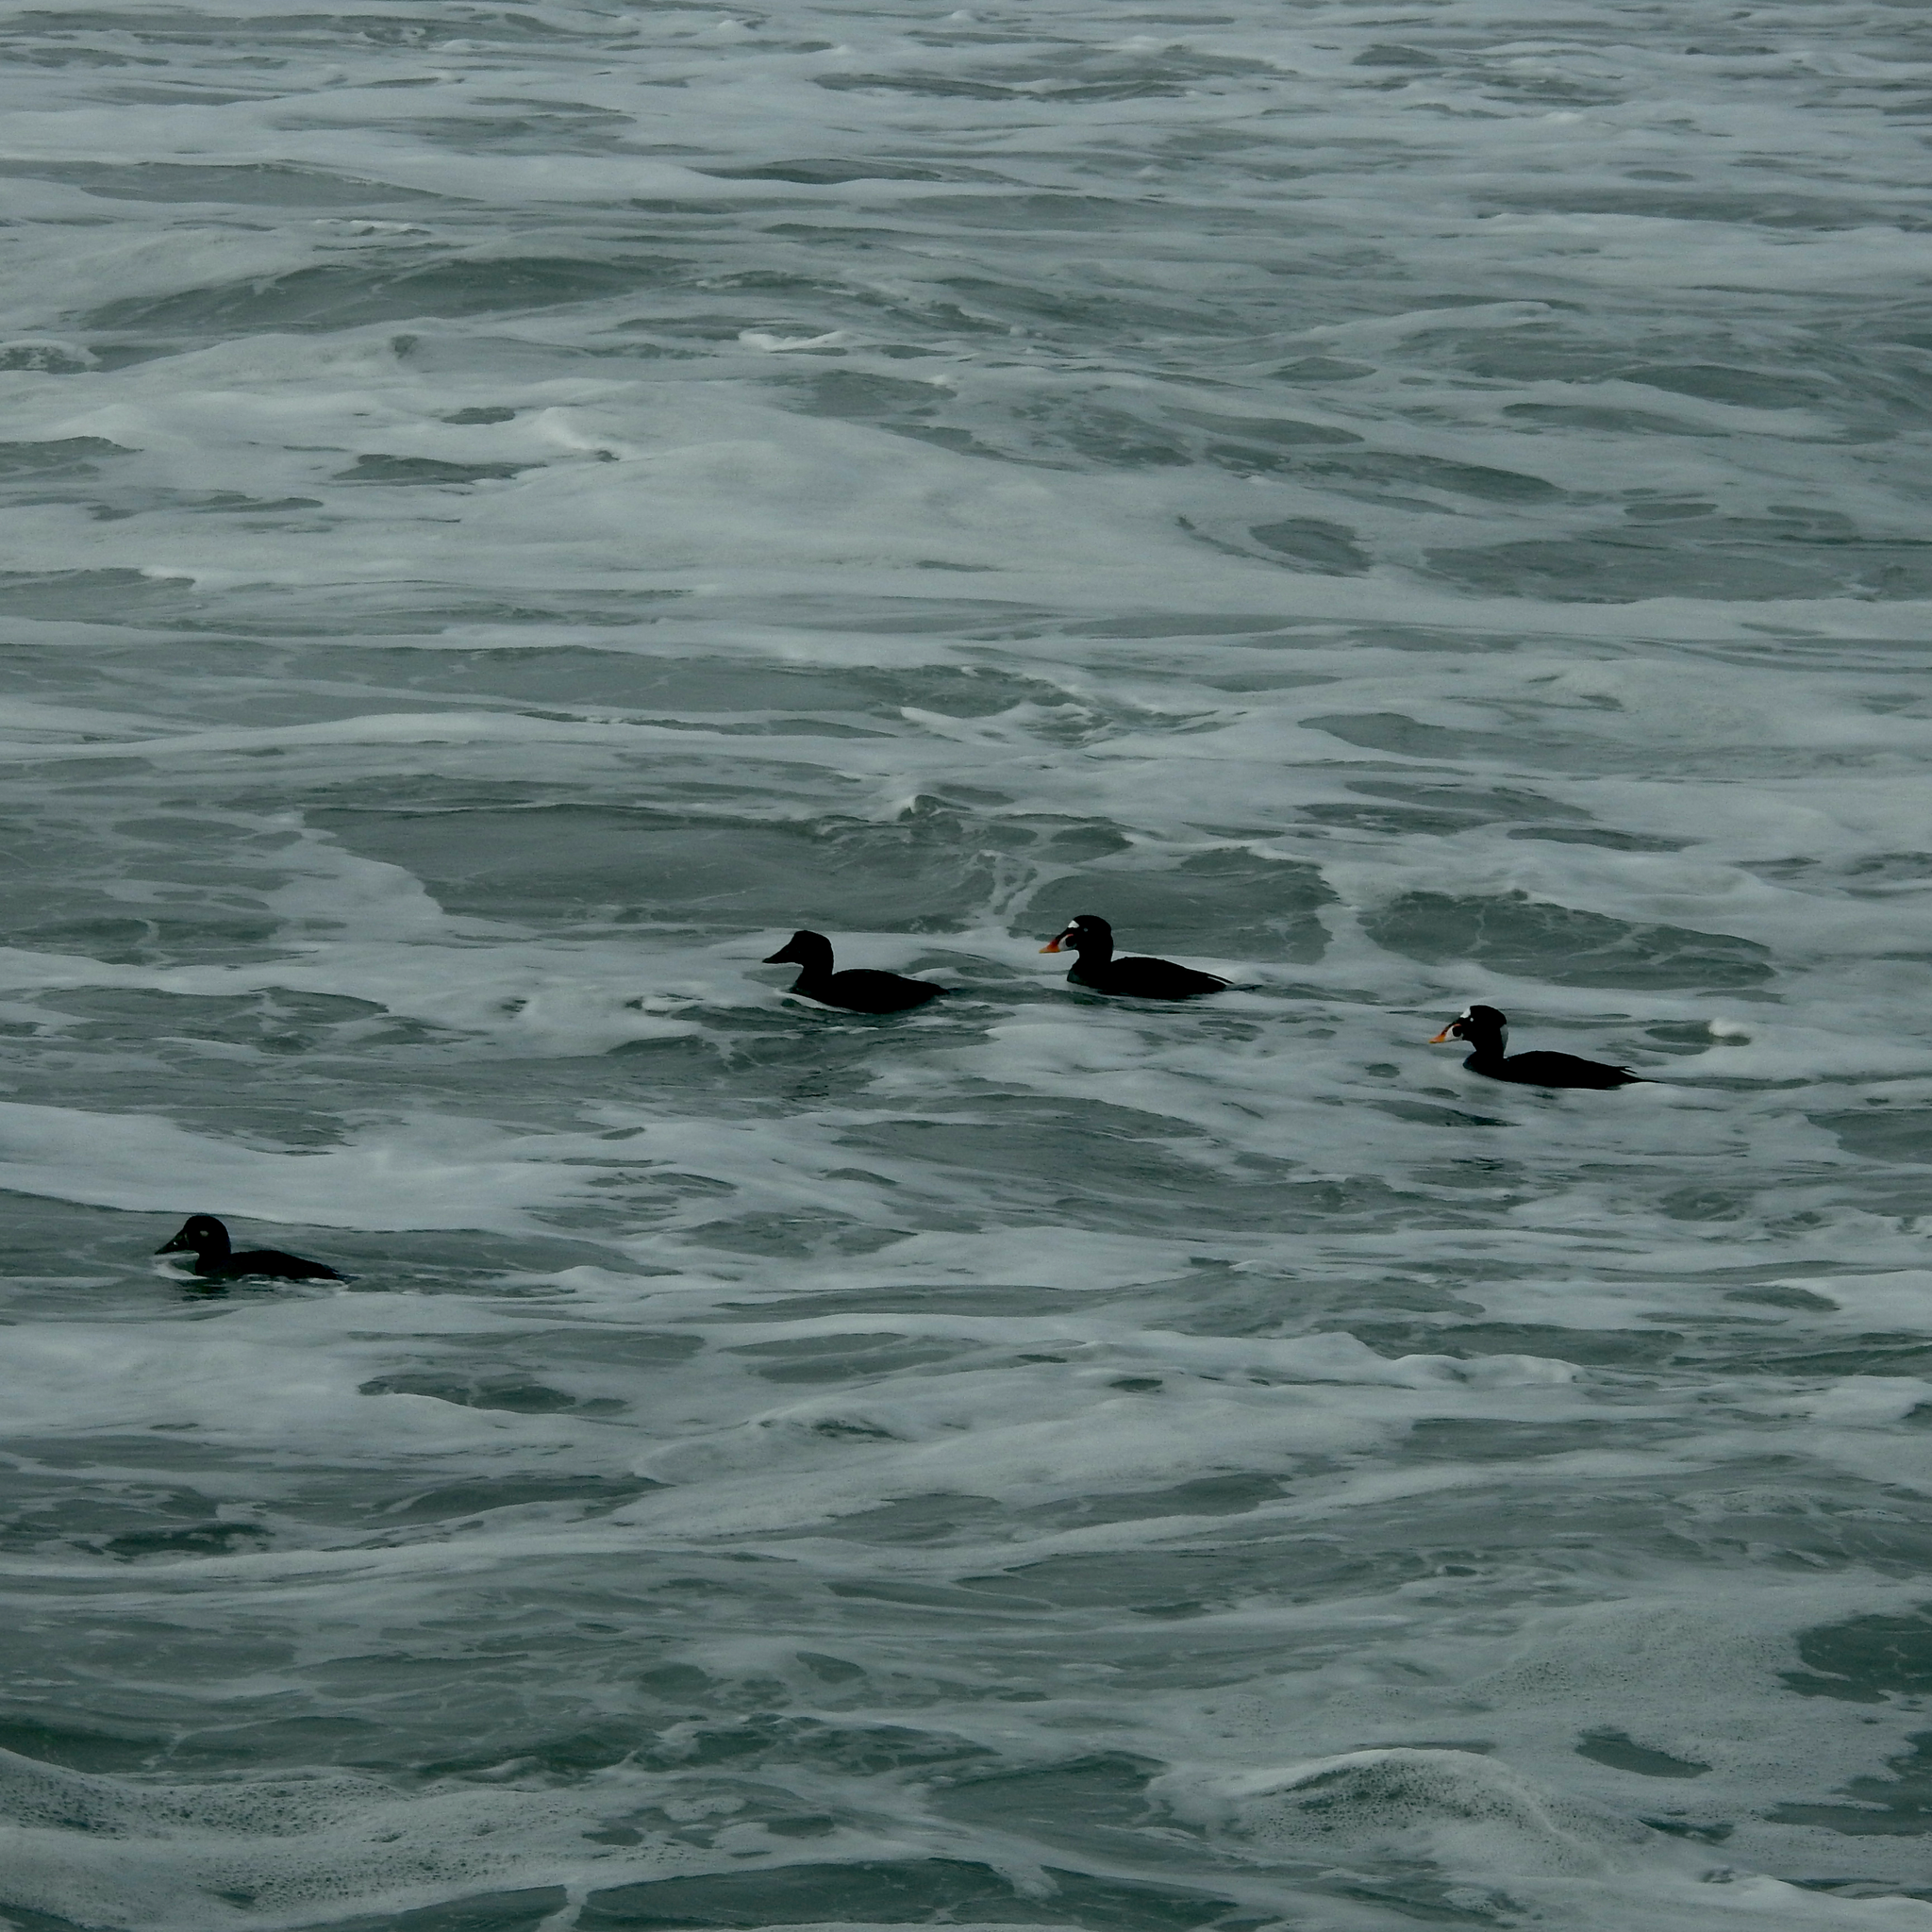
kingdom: Animalia
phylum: Chordata
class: Aves
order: Anseriformes
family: Anatidae
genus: Melanitta
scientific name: Melanitta perspicillata
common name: Surf scoter
